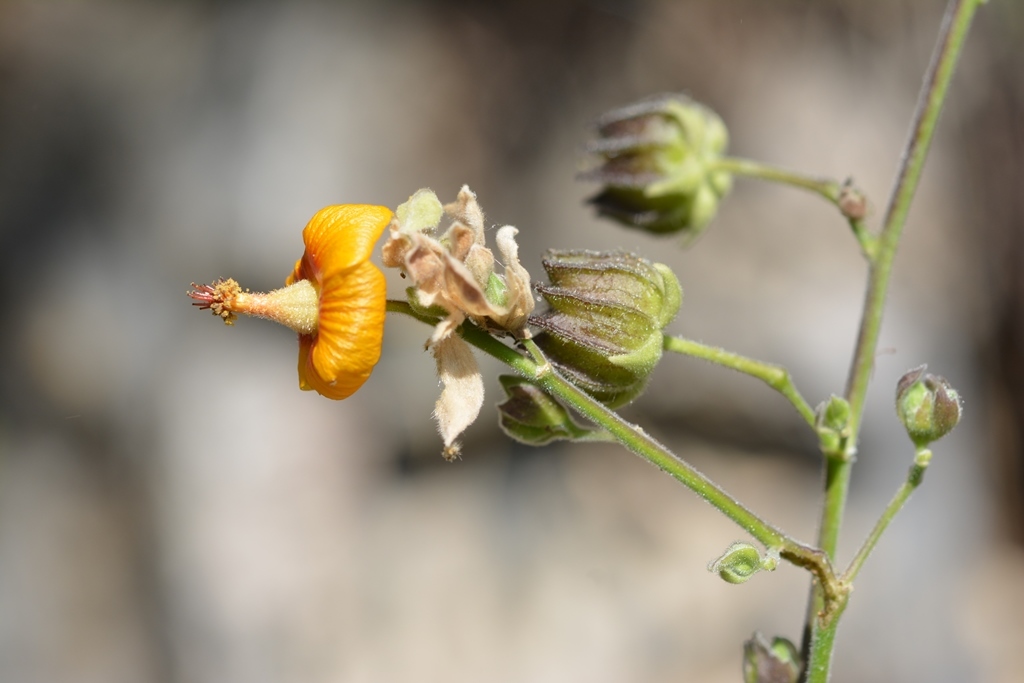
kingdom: Plantae
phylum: Tracheophyta
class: Magnoliopsida
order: Malvales
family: Malvaceae
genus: Abutilon
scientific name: Abutilon andrieuxii
